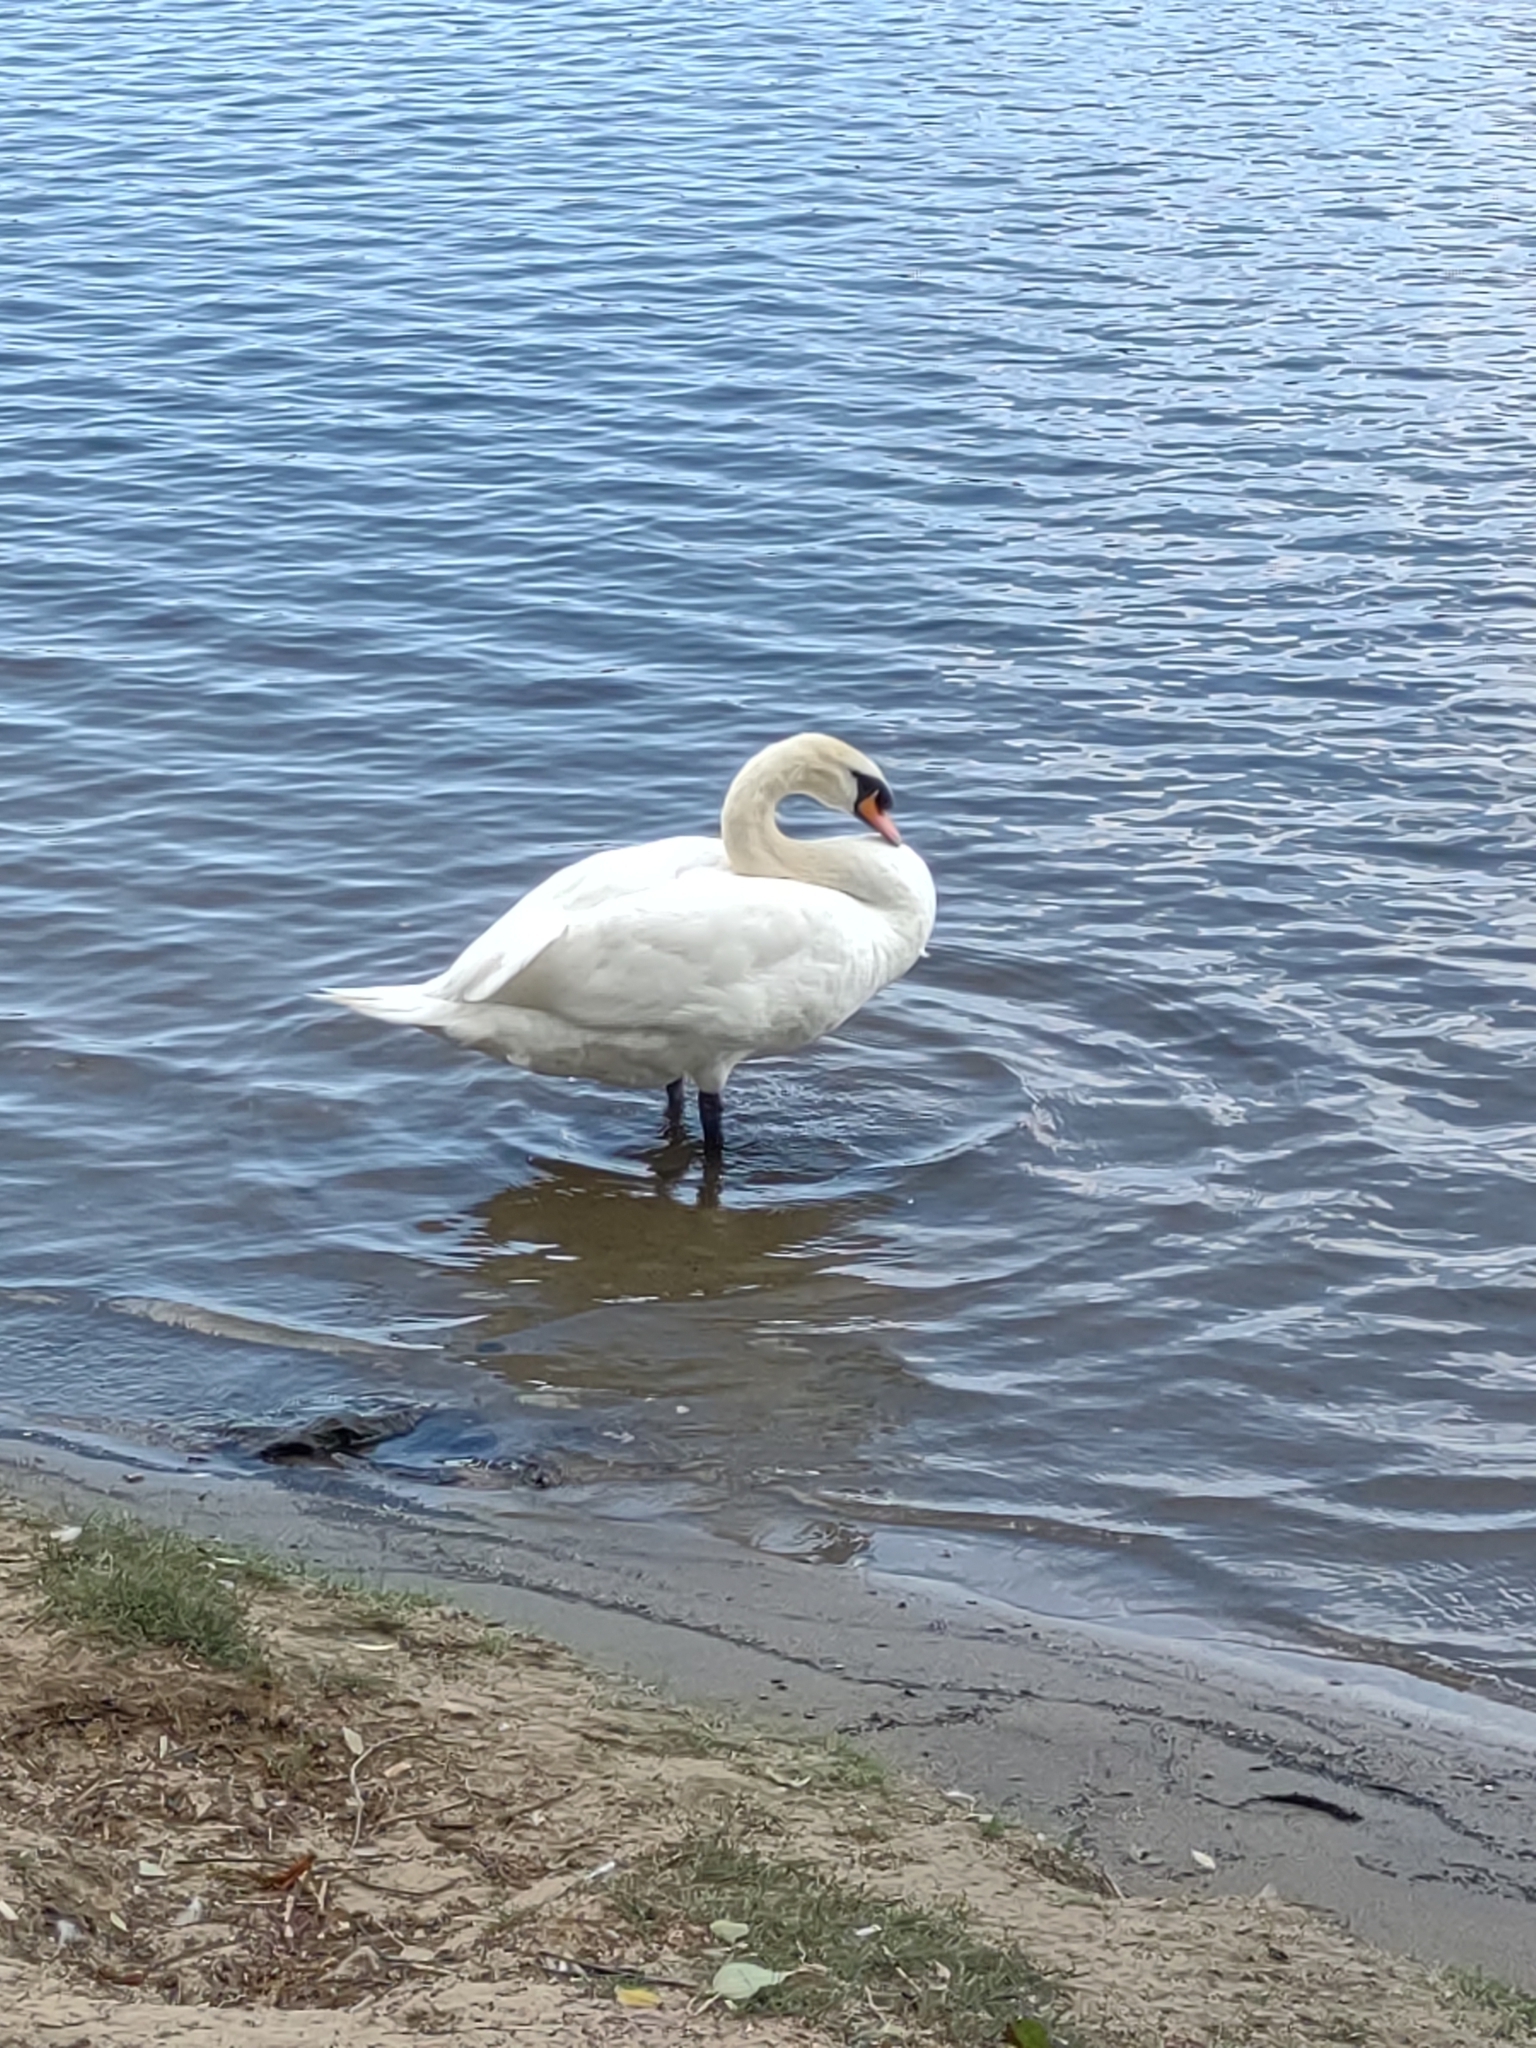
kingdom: Animalia
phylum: Chordata
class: Aves
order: Anseriformes
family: Anatidae
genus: Cygnus
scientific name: Cygnus olor
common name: Mute swan
